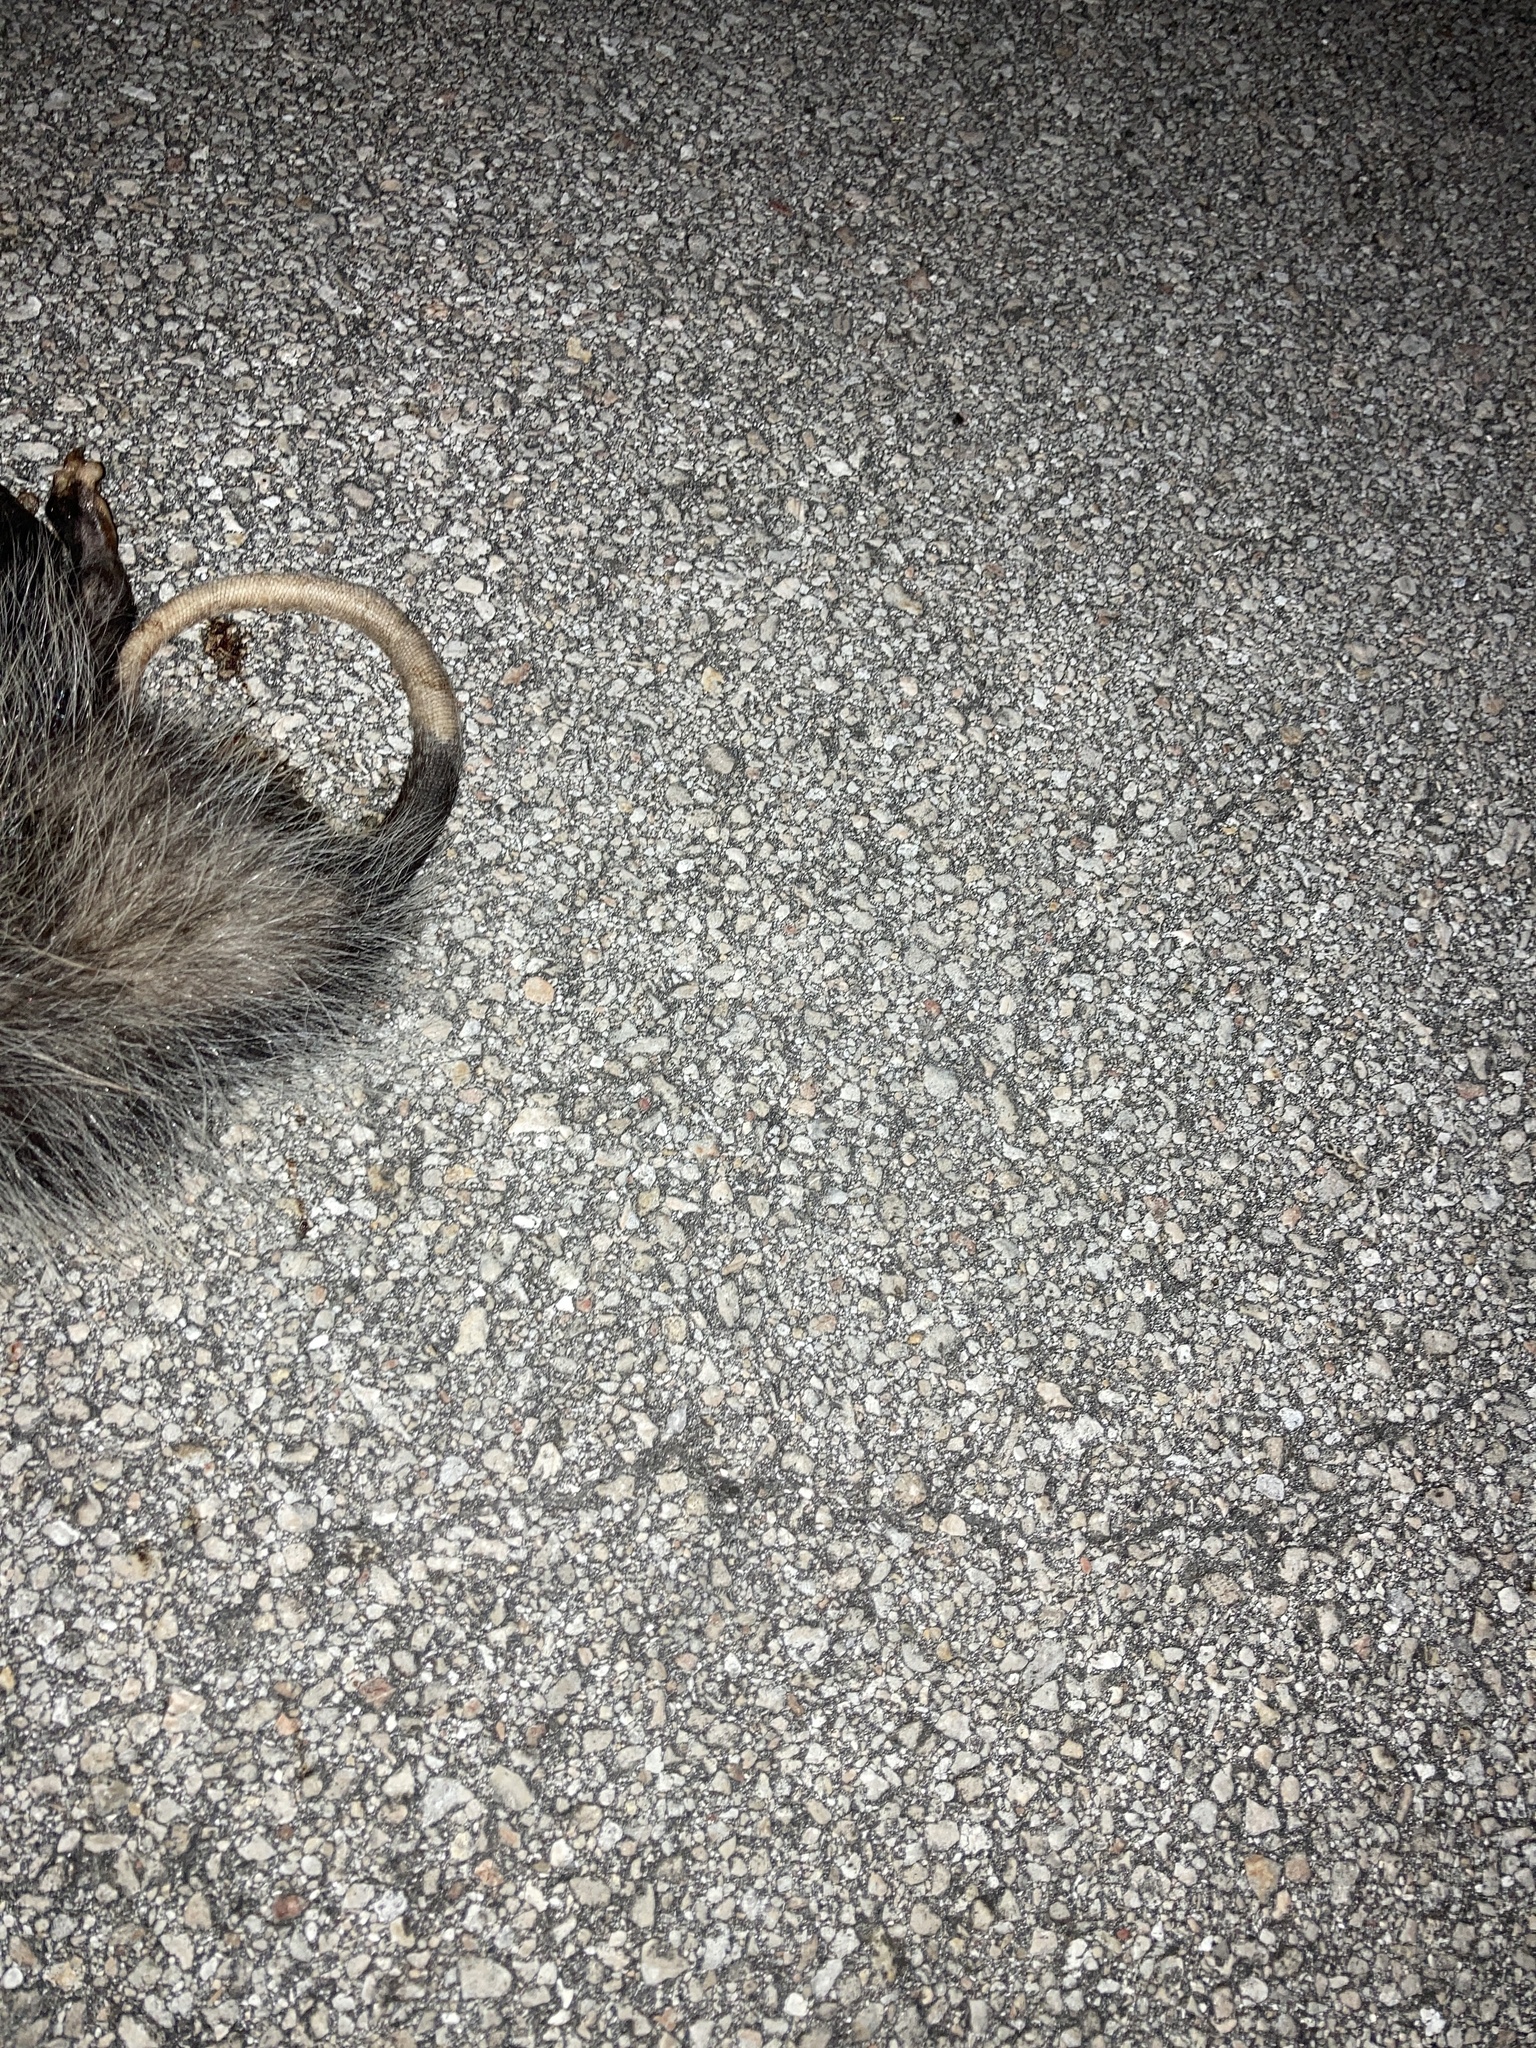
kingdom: Animalia
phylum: Chordata
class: Mammalia
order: Didelphimorphia
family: Didelphidae
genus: Didelphis
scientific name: Didelphis virginiana
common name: Virginia opossum
